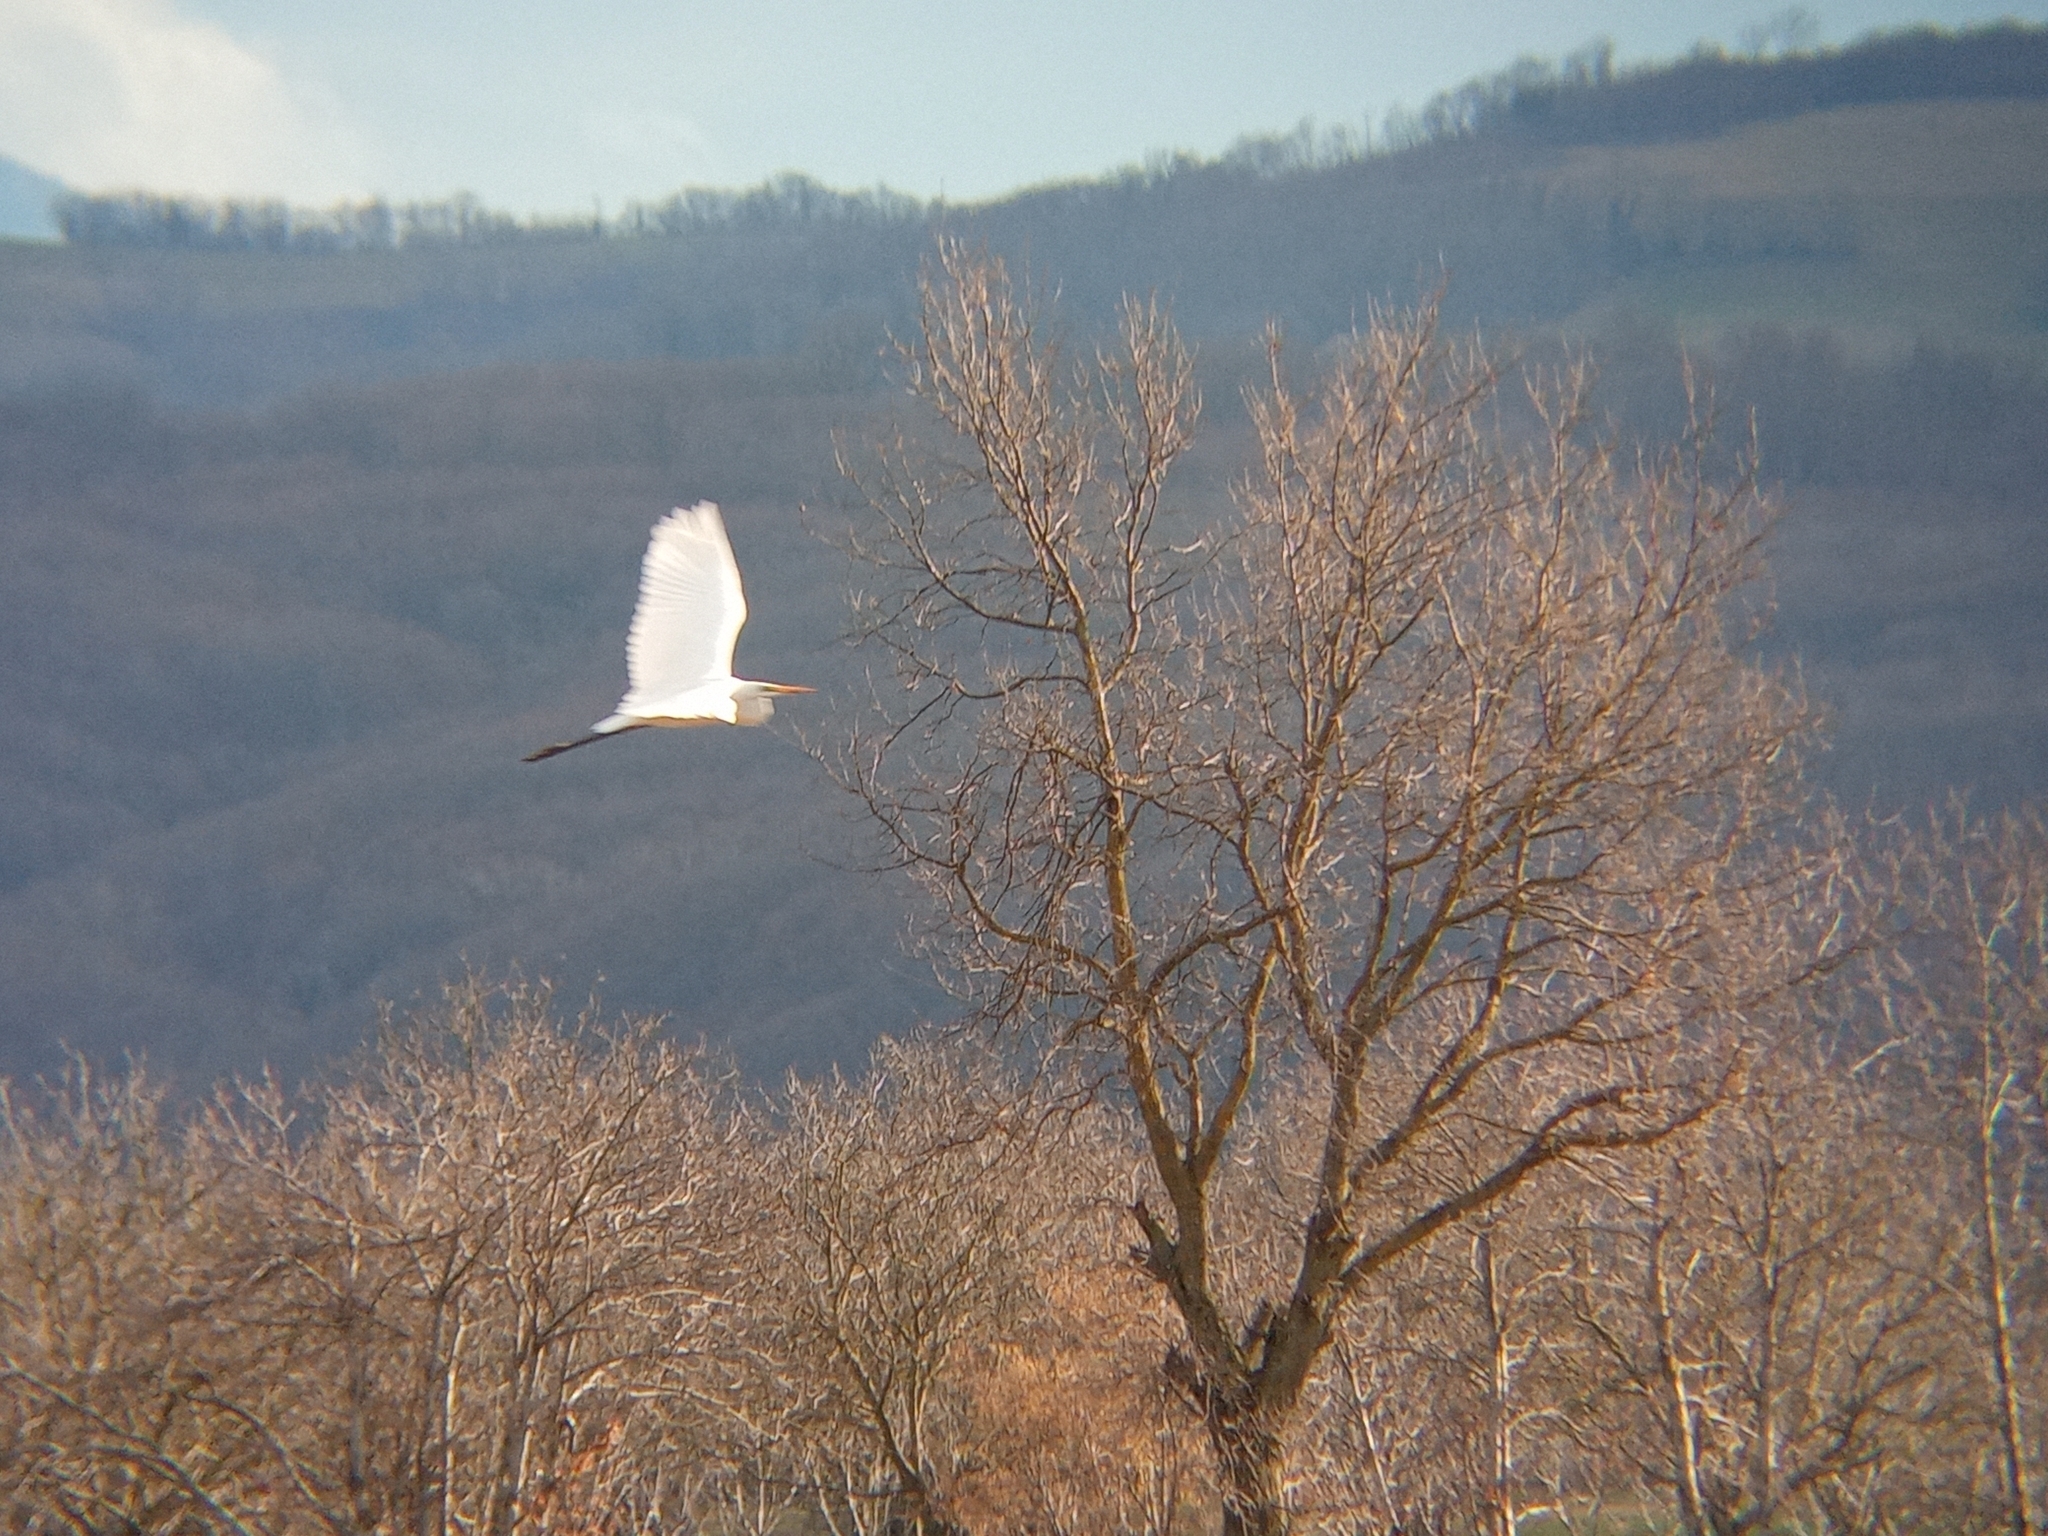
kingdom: Animalia
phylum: Chordata
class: Aves
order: Pelecaniformes
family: Ardeidae
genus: Ardea
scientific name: Ardea alba
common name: Great egret
